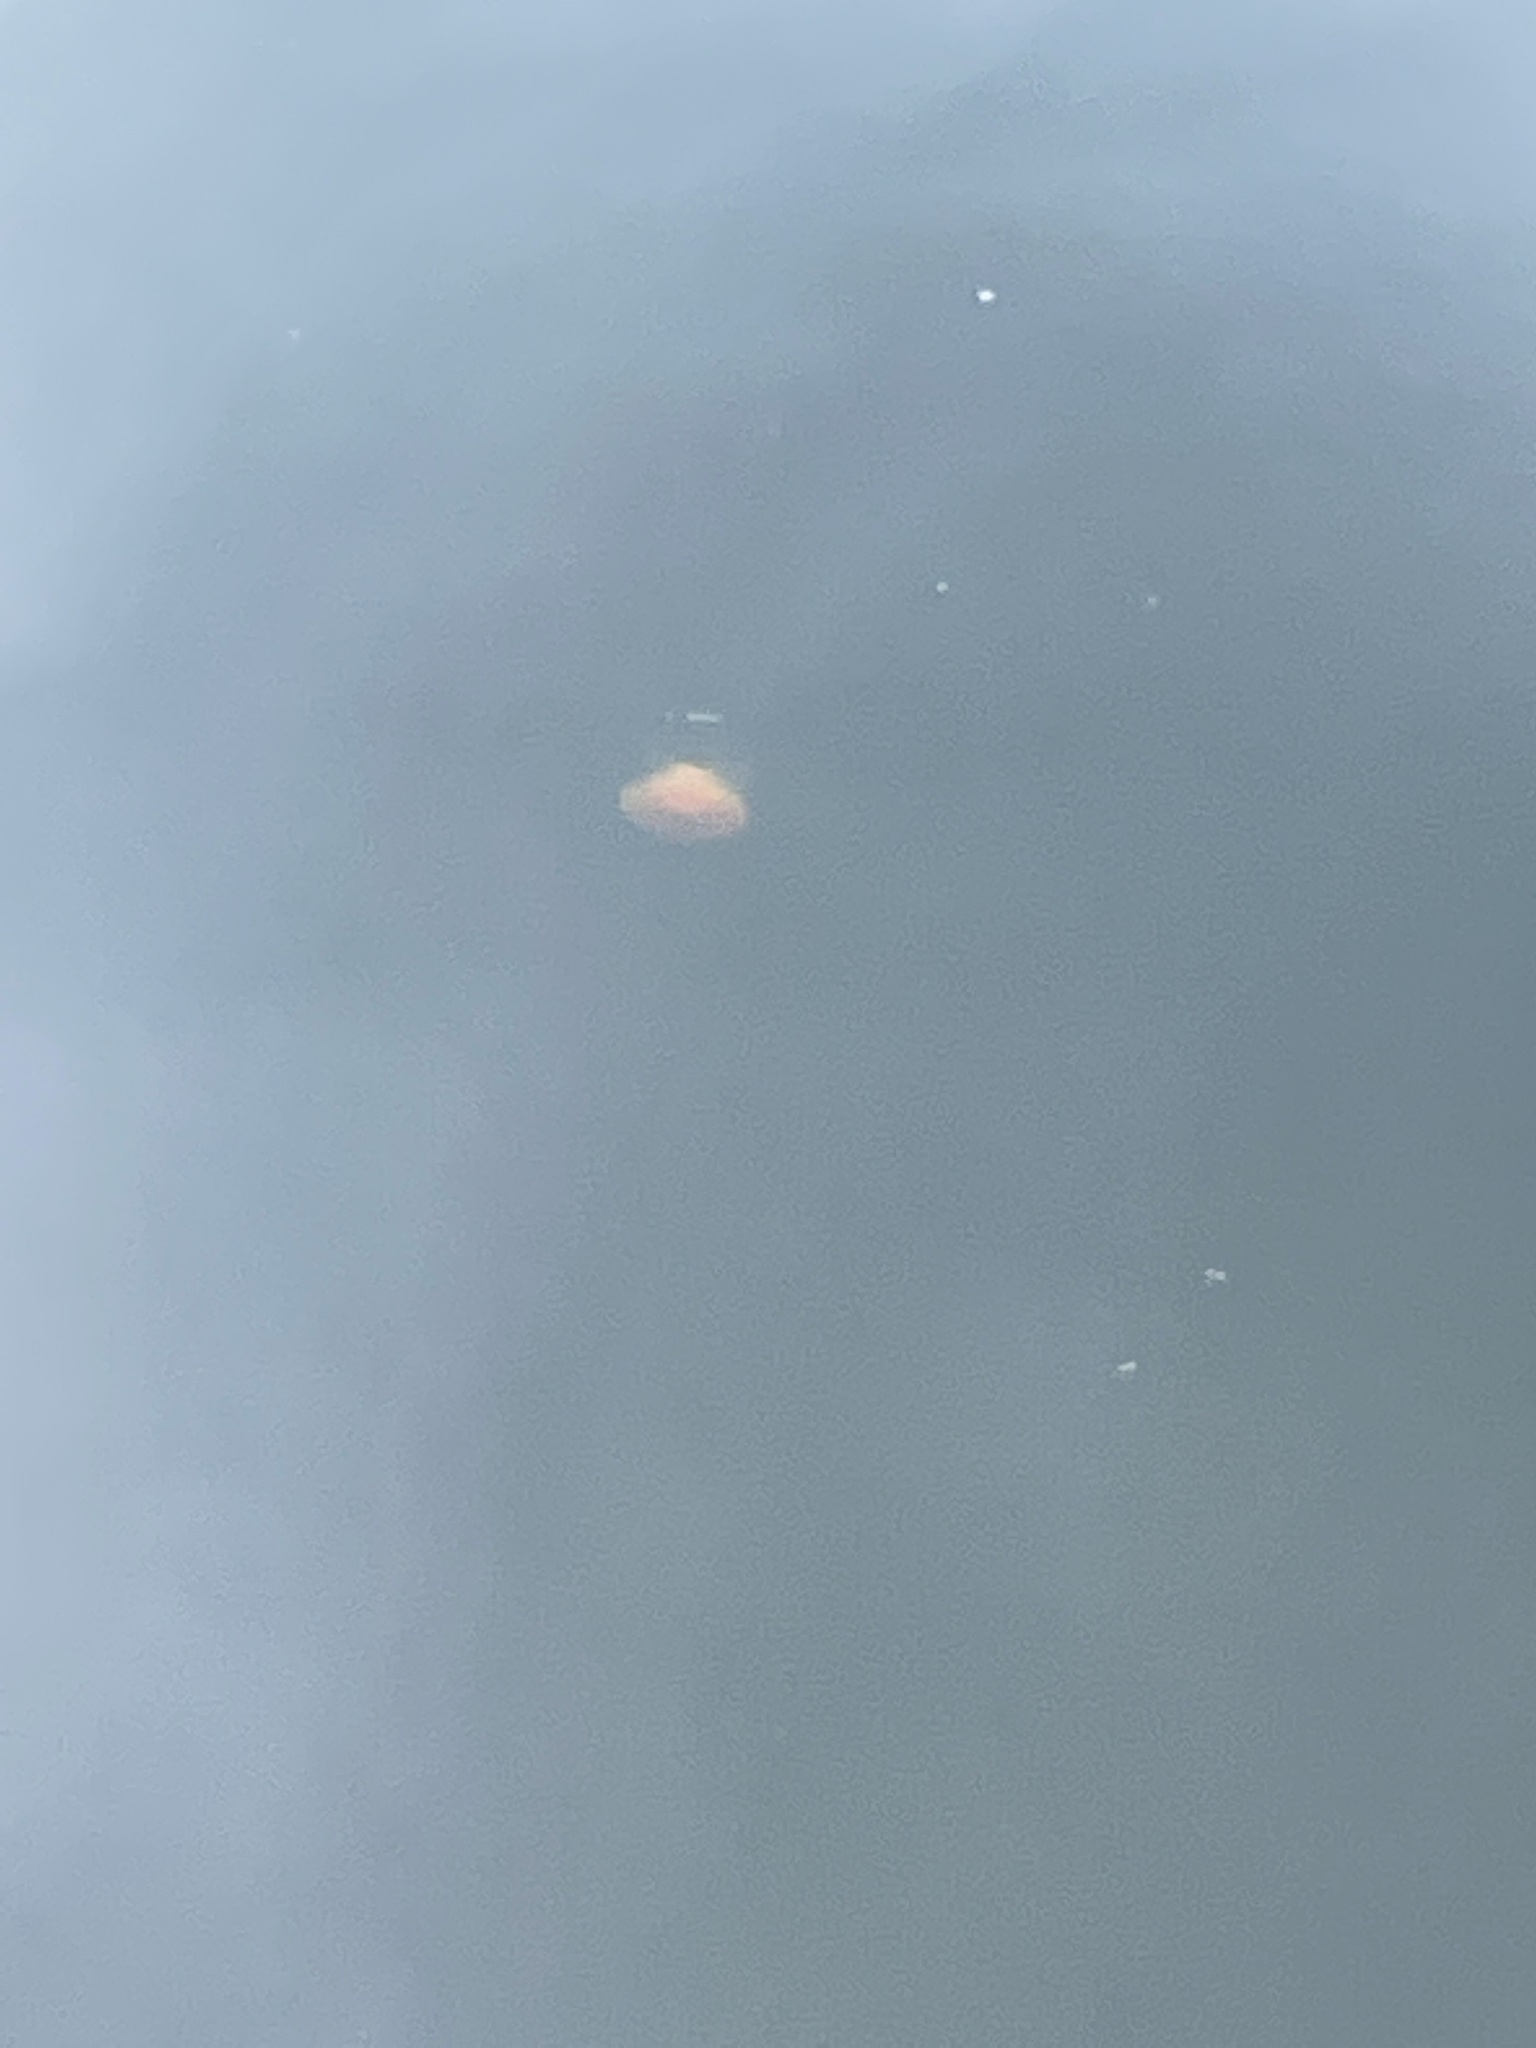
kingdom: Animalia
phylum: Cnidaria
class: Scyphozoa
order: Semaeostomeae
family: Cyaneidae
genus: Cyanea
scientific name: Cyanea capillata
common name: Lion's mane jellyfish
